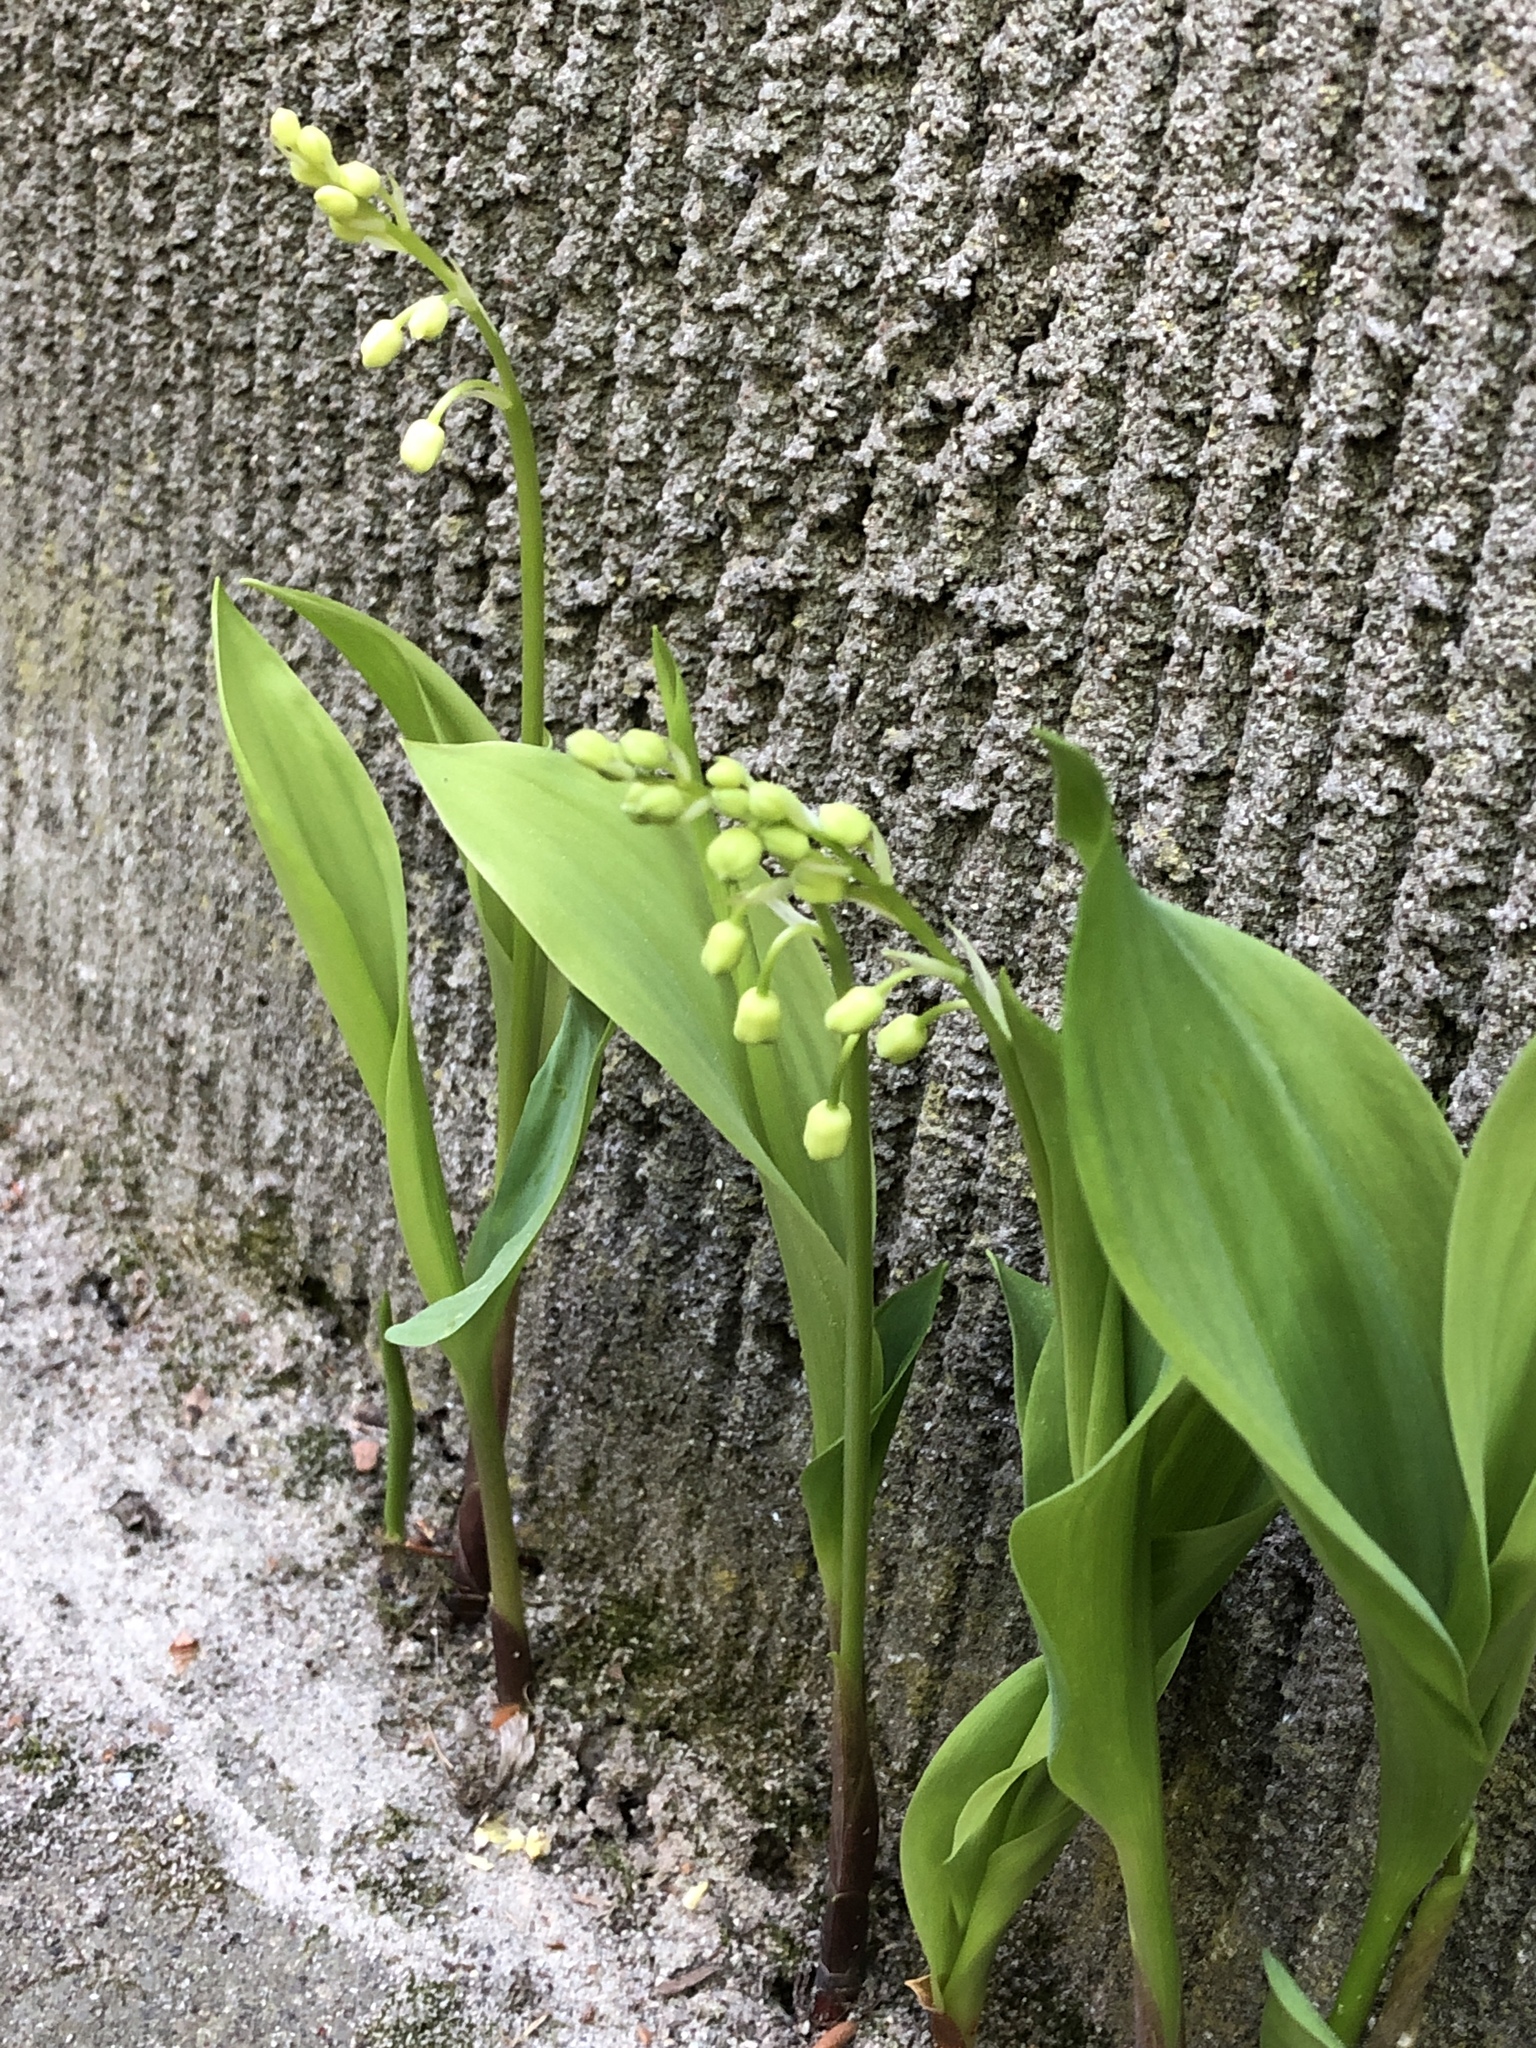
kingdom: Plantae
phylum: Tracheophyta
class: Liliopsida
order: Asparagales
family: Asparagaceae
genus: Convallaria
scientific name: Convallaria majalis
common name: Lily-of-the-valley
